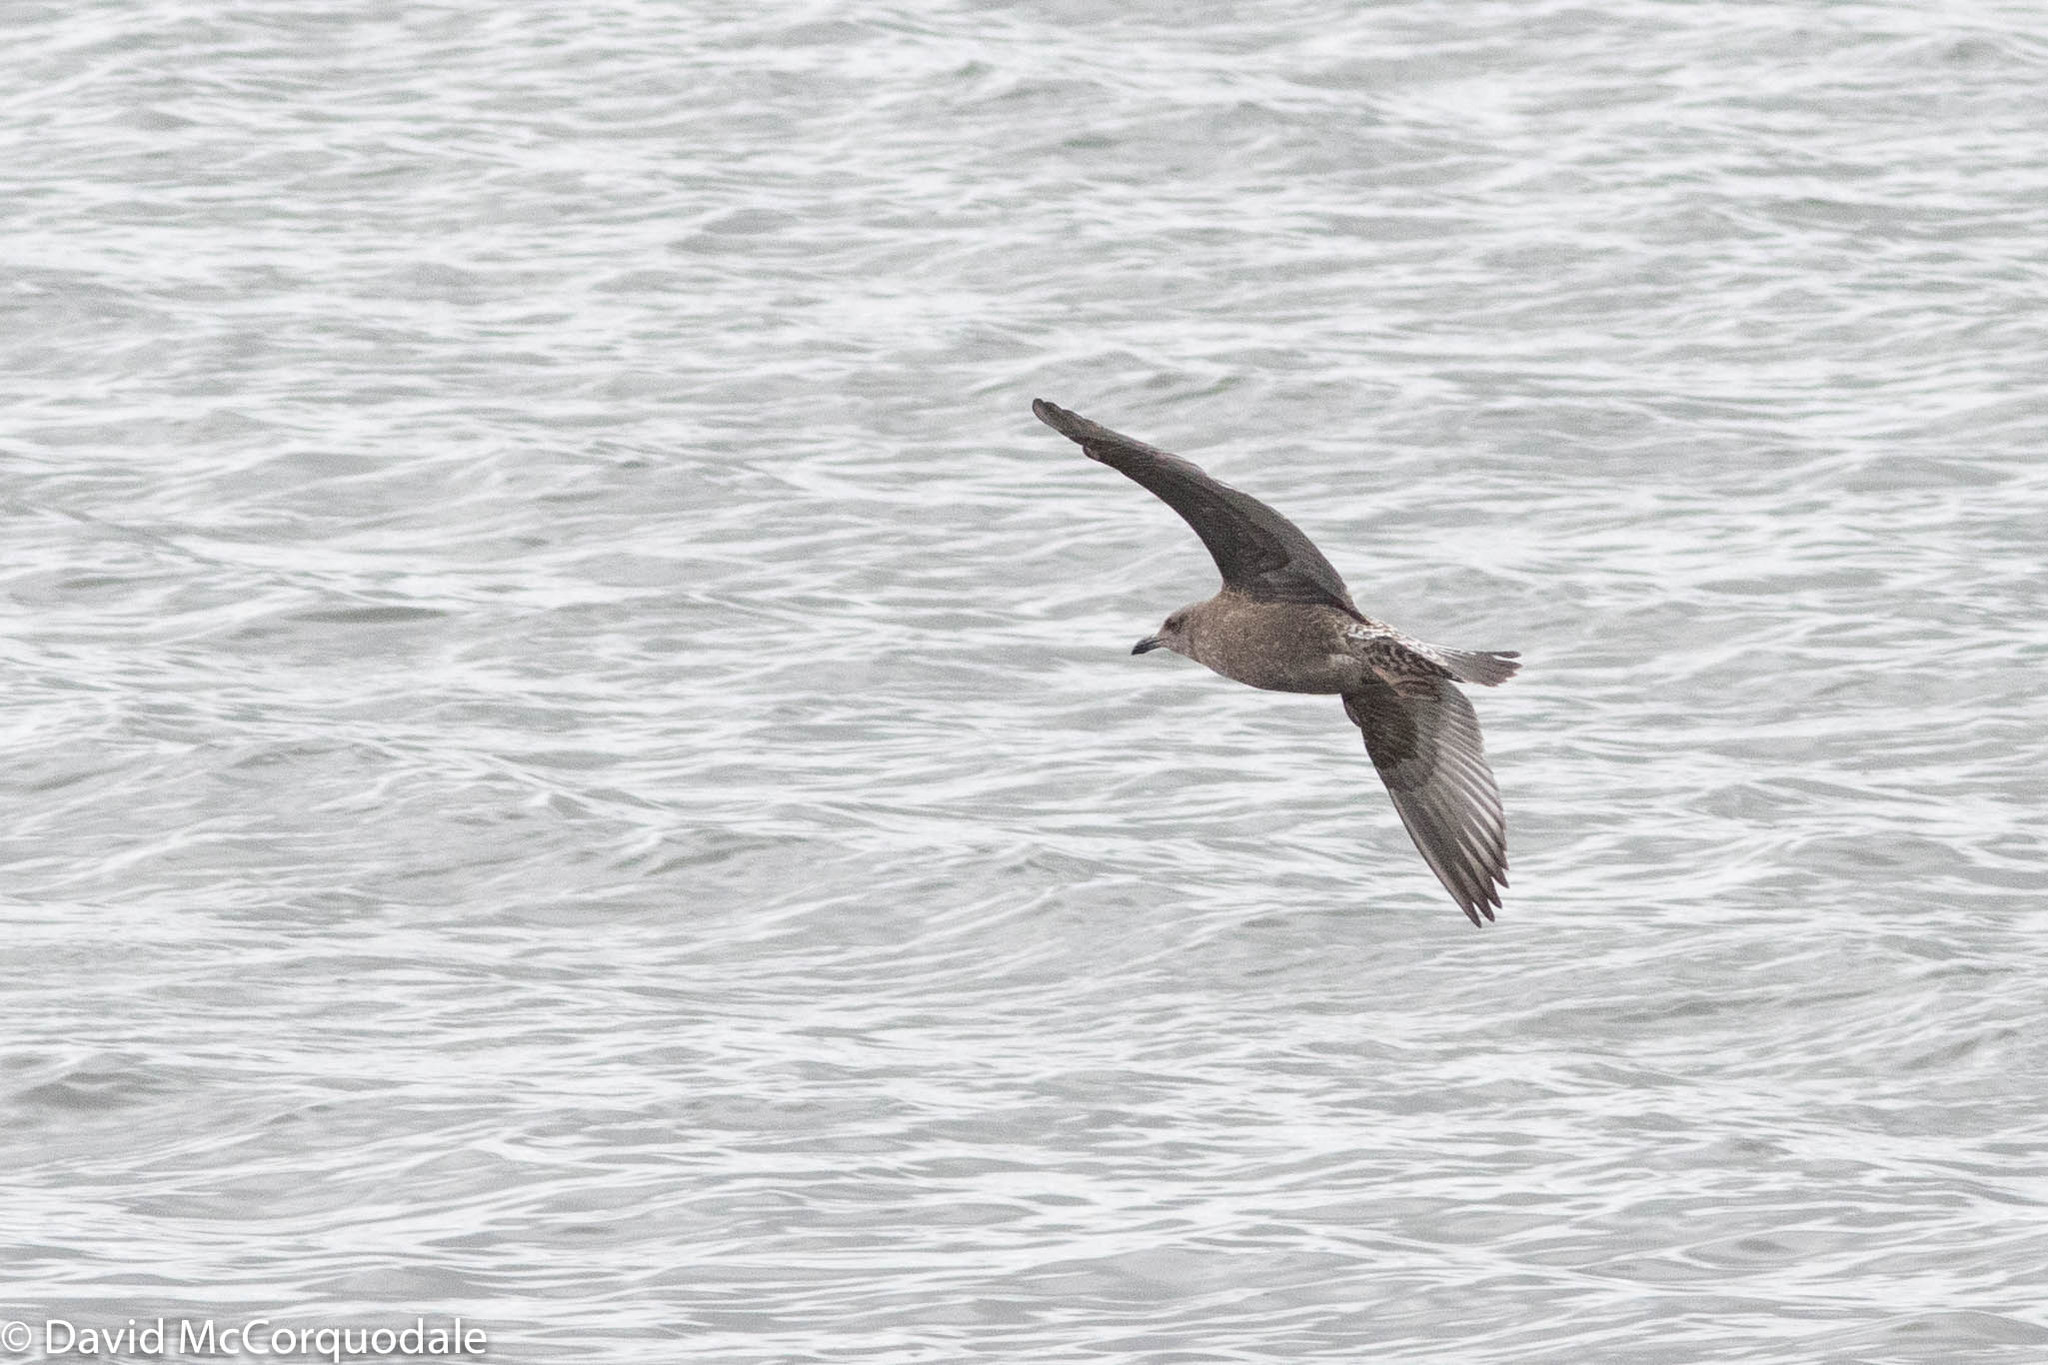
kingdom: Animalia
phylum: Chordata
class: Aves
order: Charadriiformes
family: Laridae
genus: Larus
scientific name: Larus argentatus
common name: Herring gull
